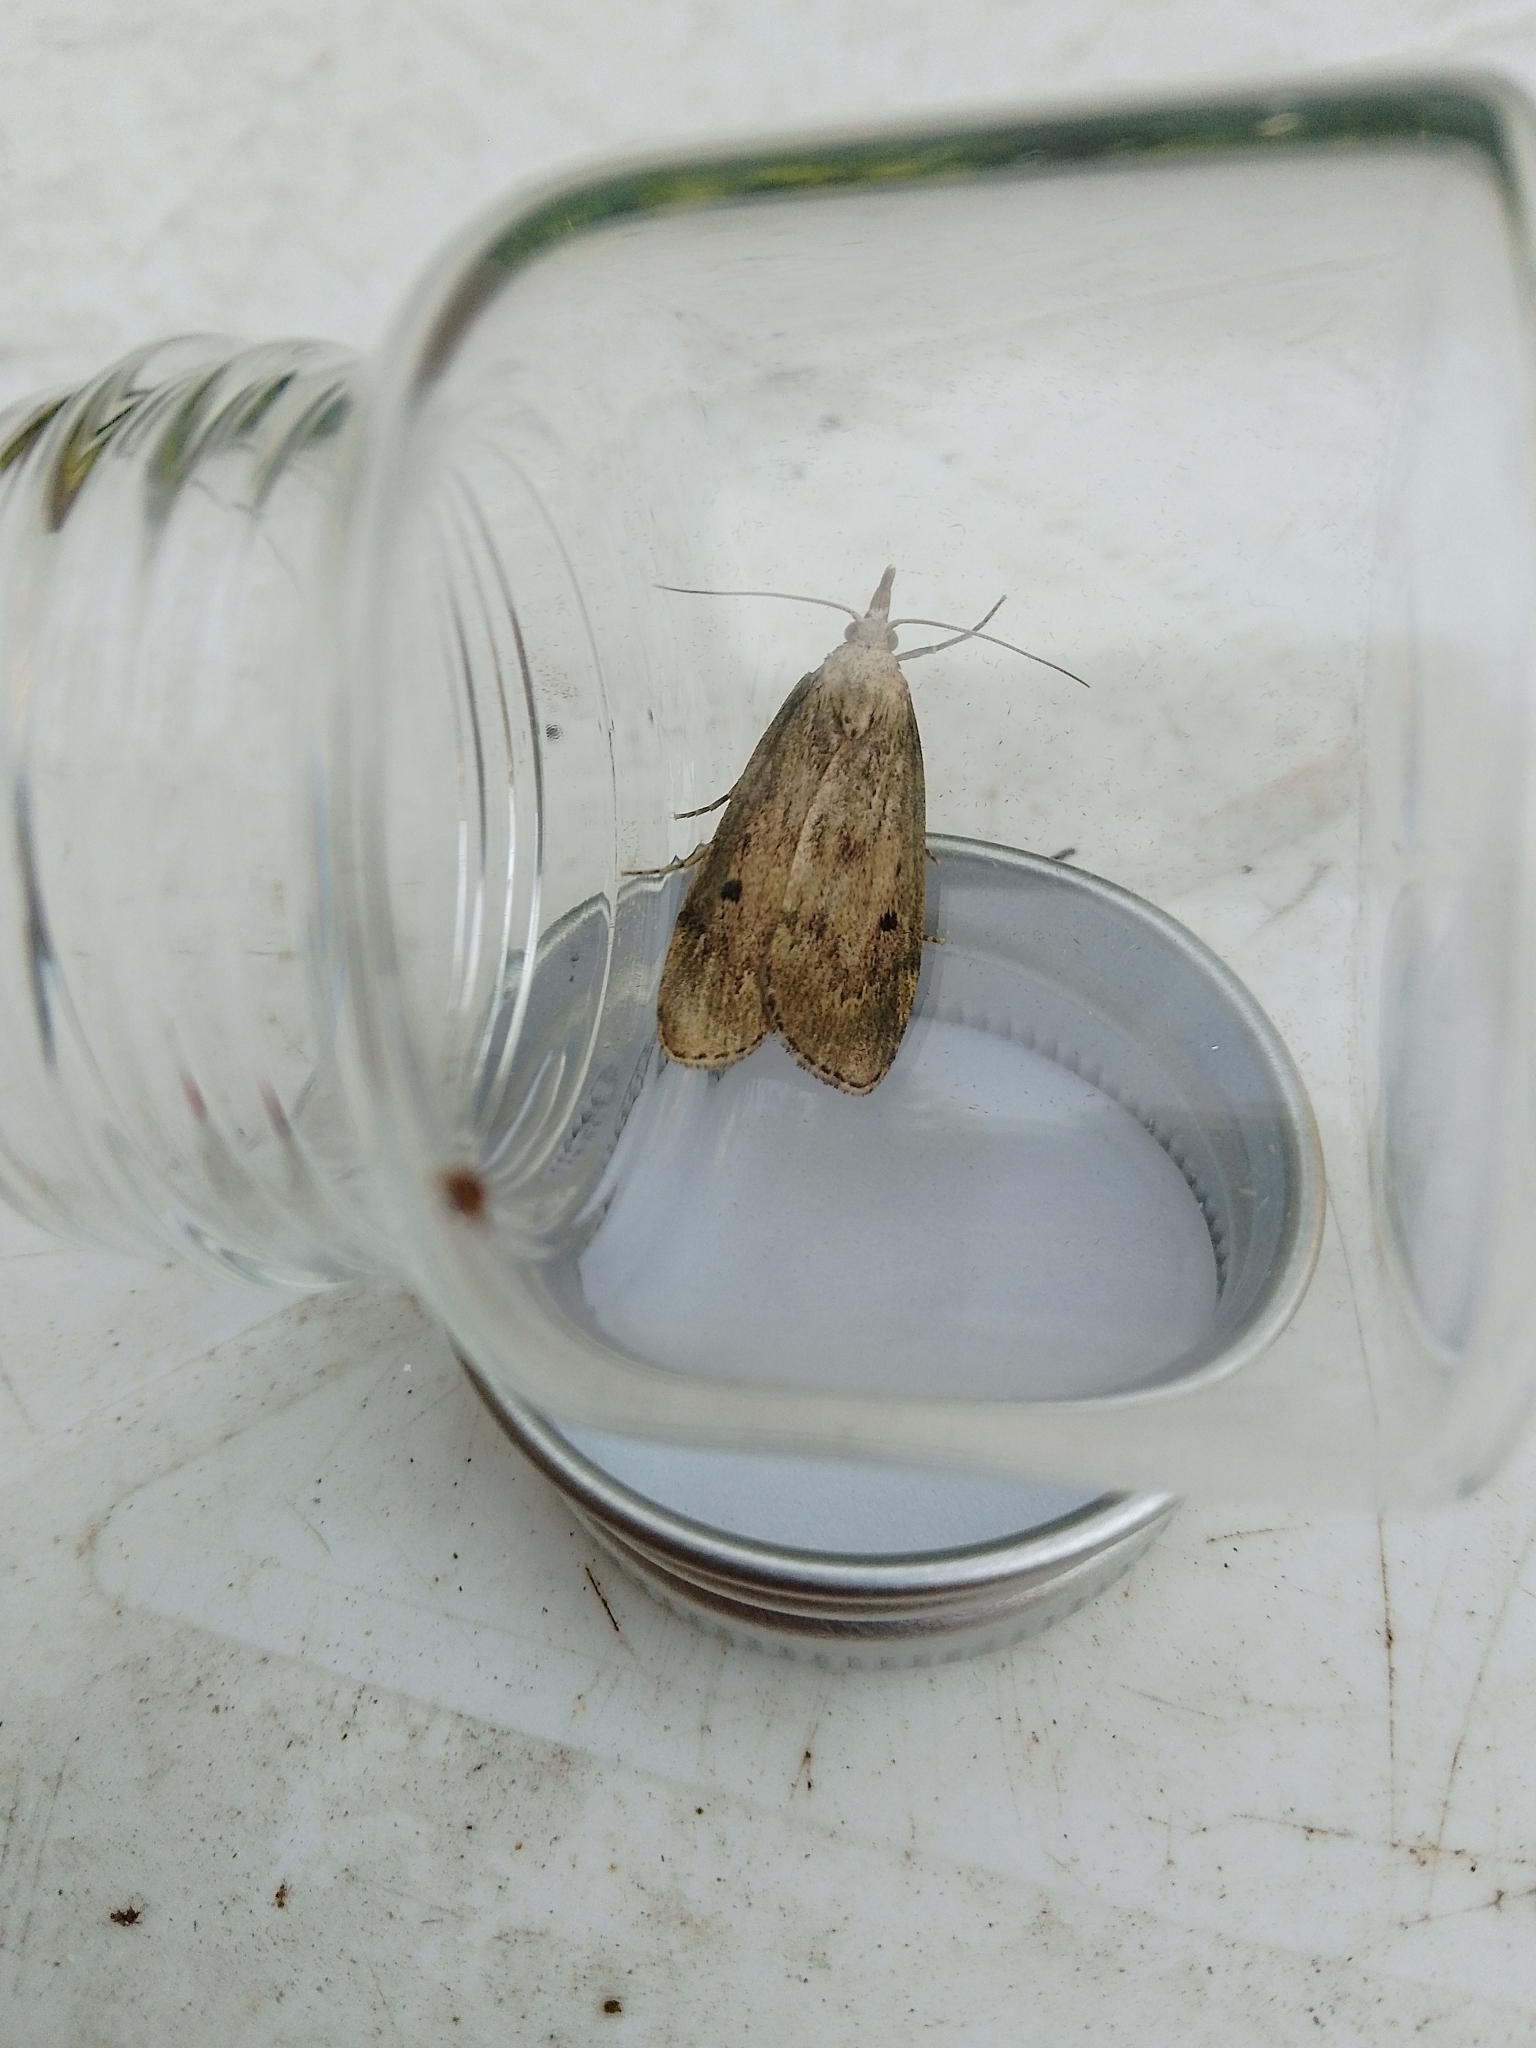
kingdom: Animalia
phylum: Arthropoda
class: Insecta
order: Lepidoptera
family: Pyralidae
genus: Aphomia
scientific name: Aphomia sociella
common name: Bee moth
